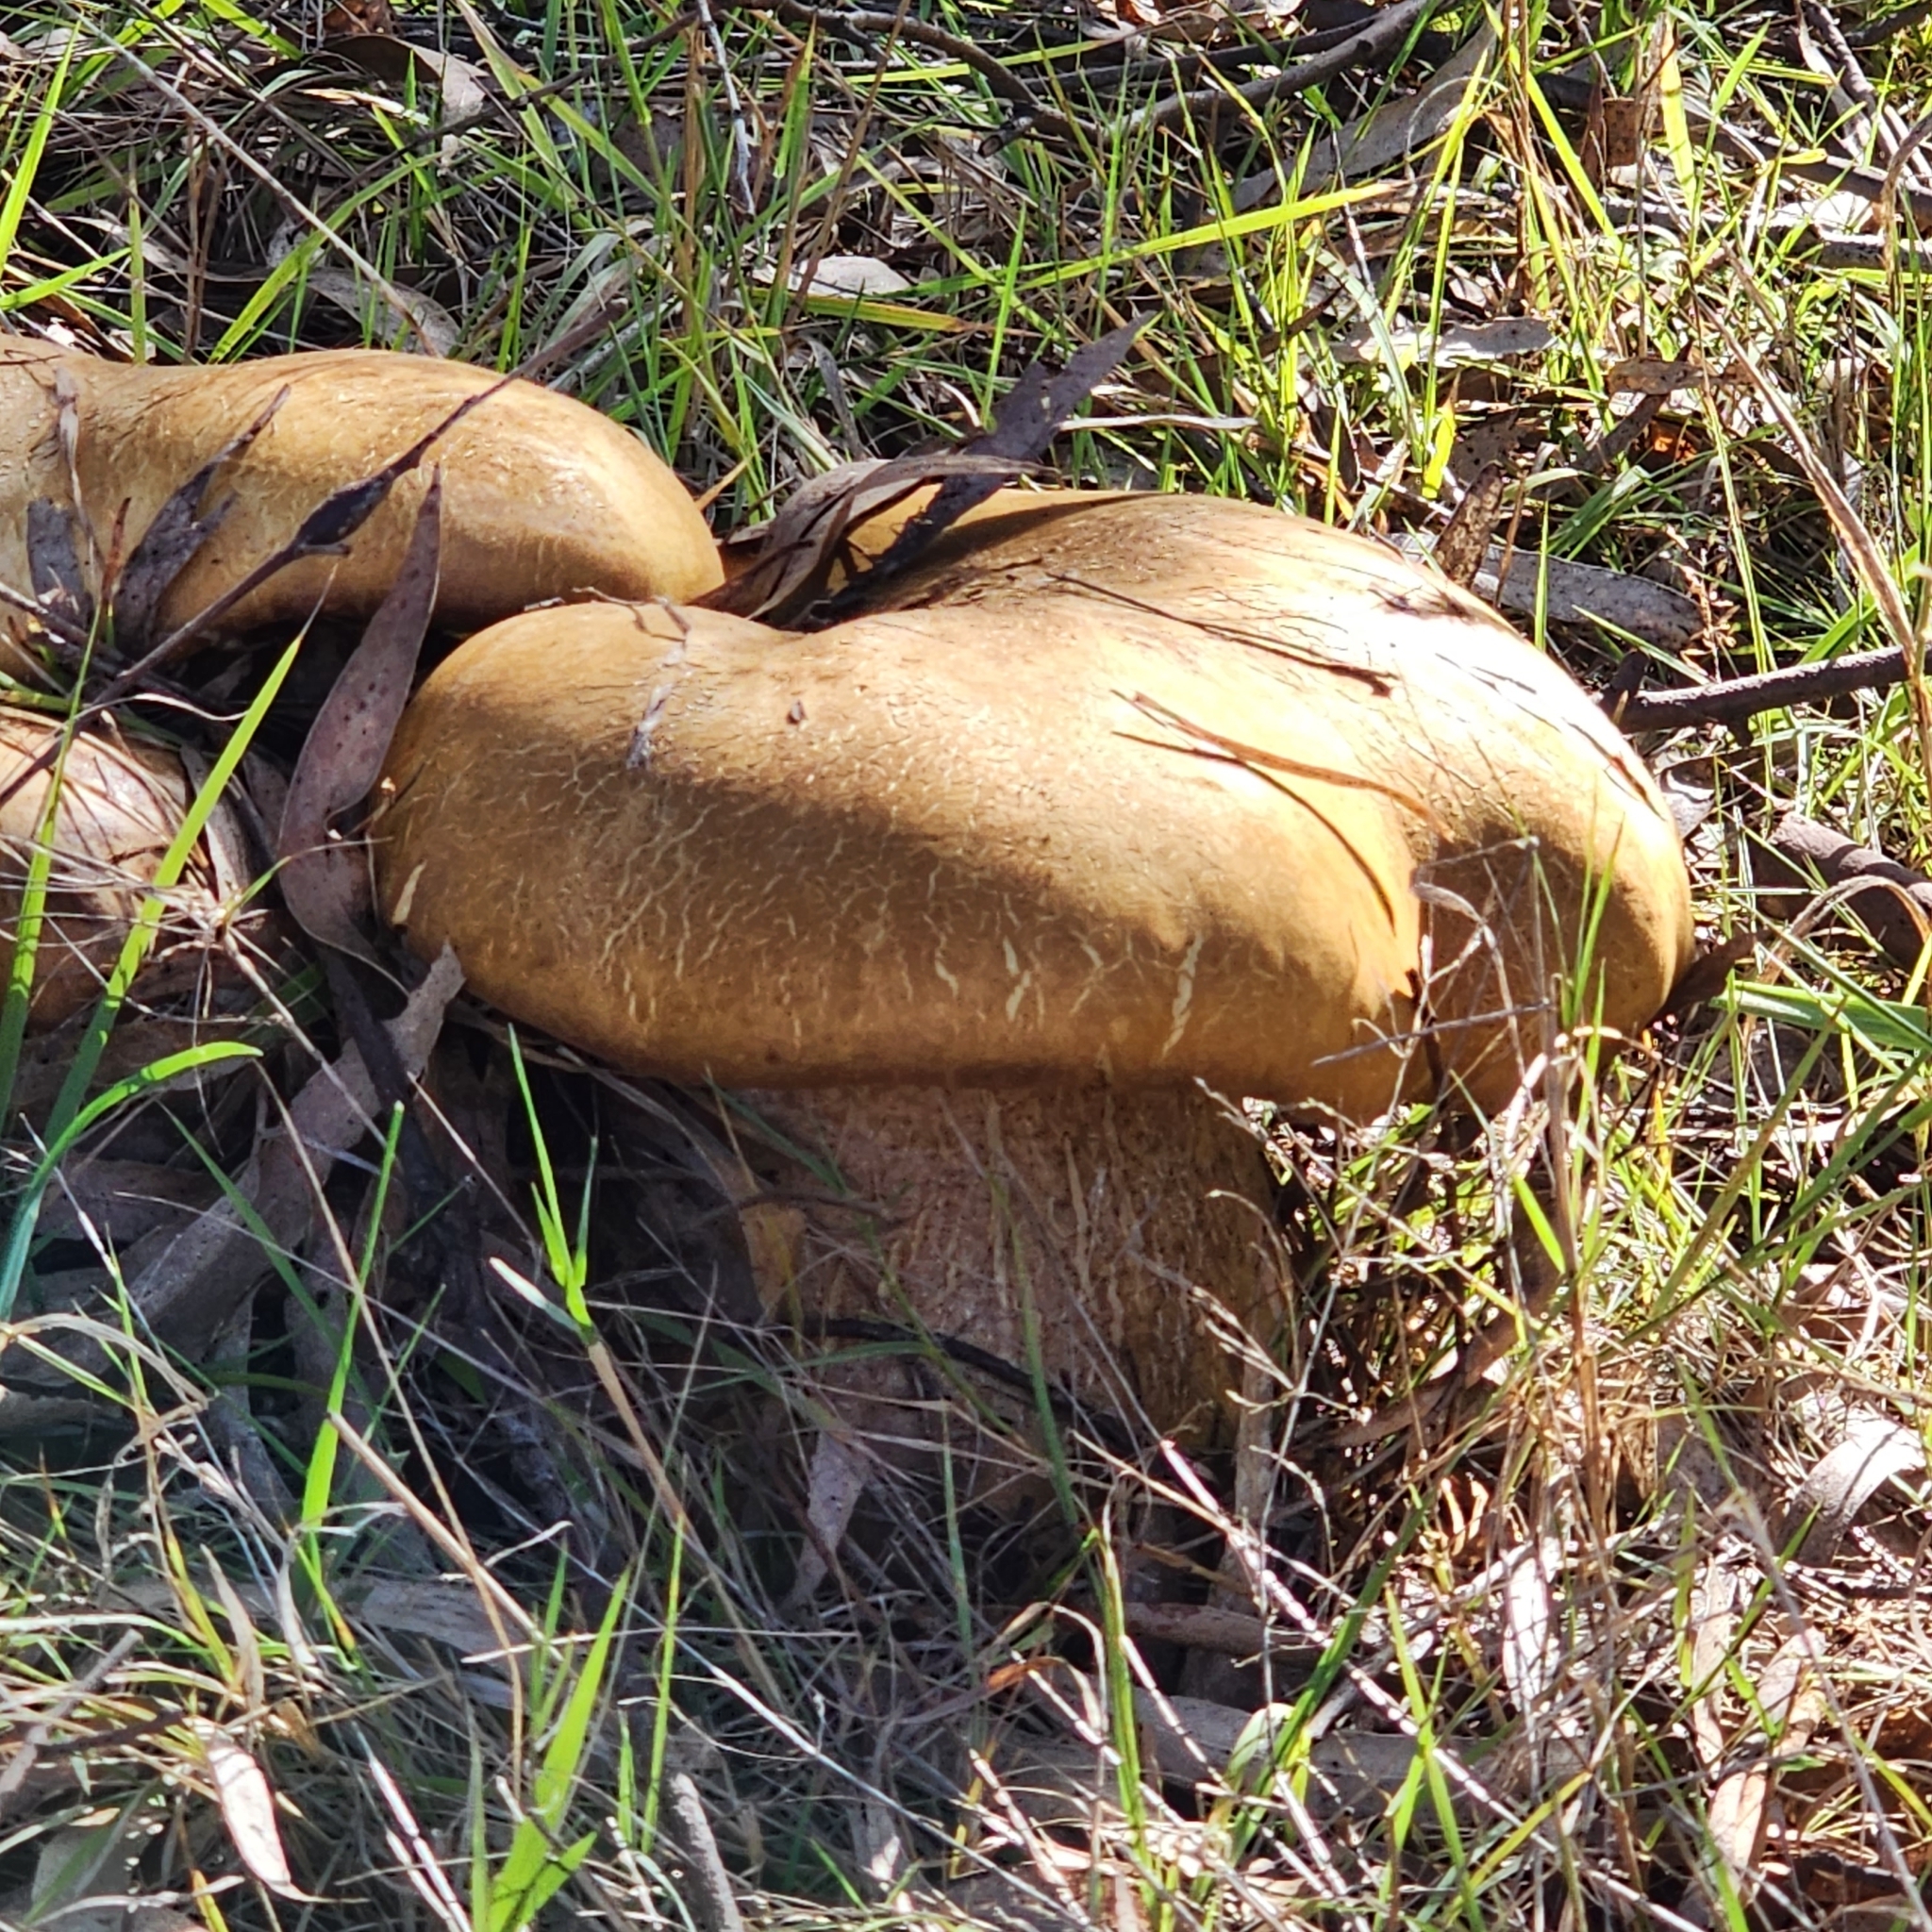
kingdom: Fungi
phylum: Basidiomycota
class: Agaricomycetes
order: Boletales
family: Boletinellaceae
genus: Phlebopus
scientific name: Phlebopus marginatus
